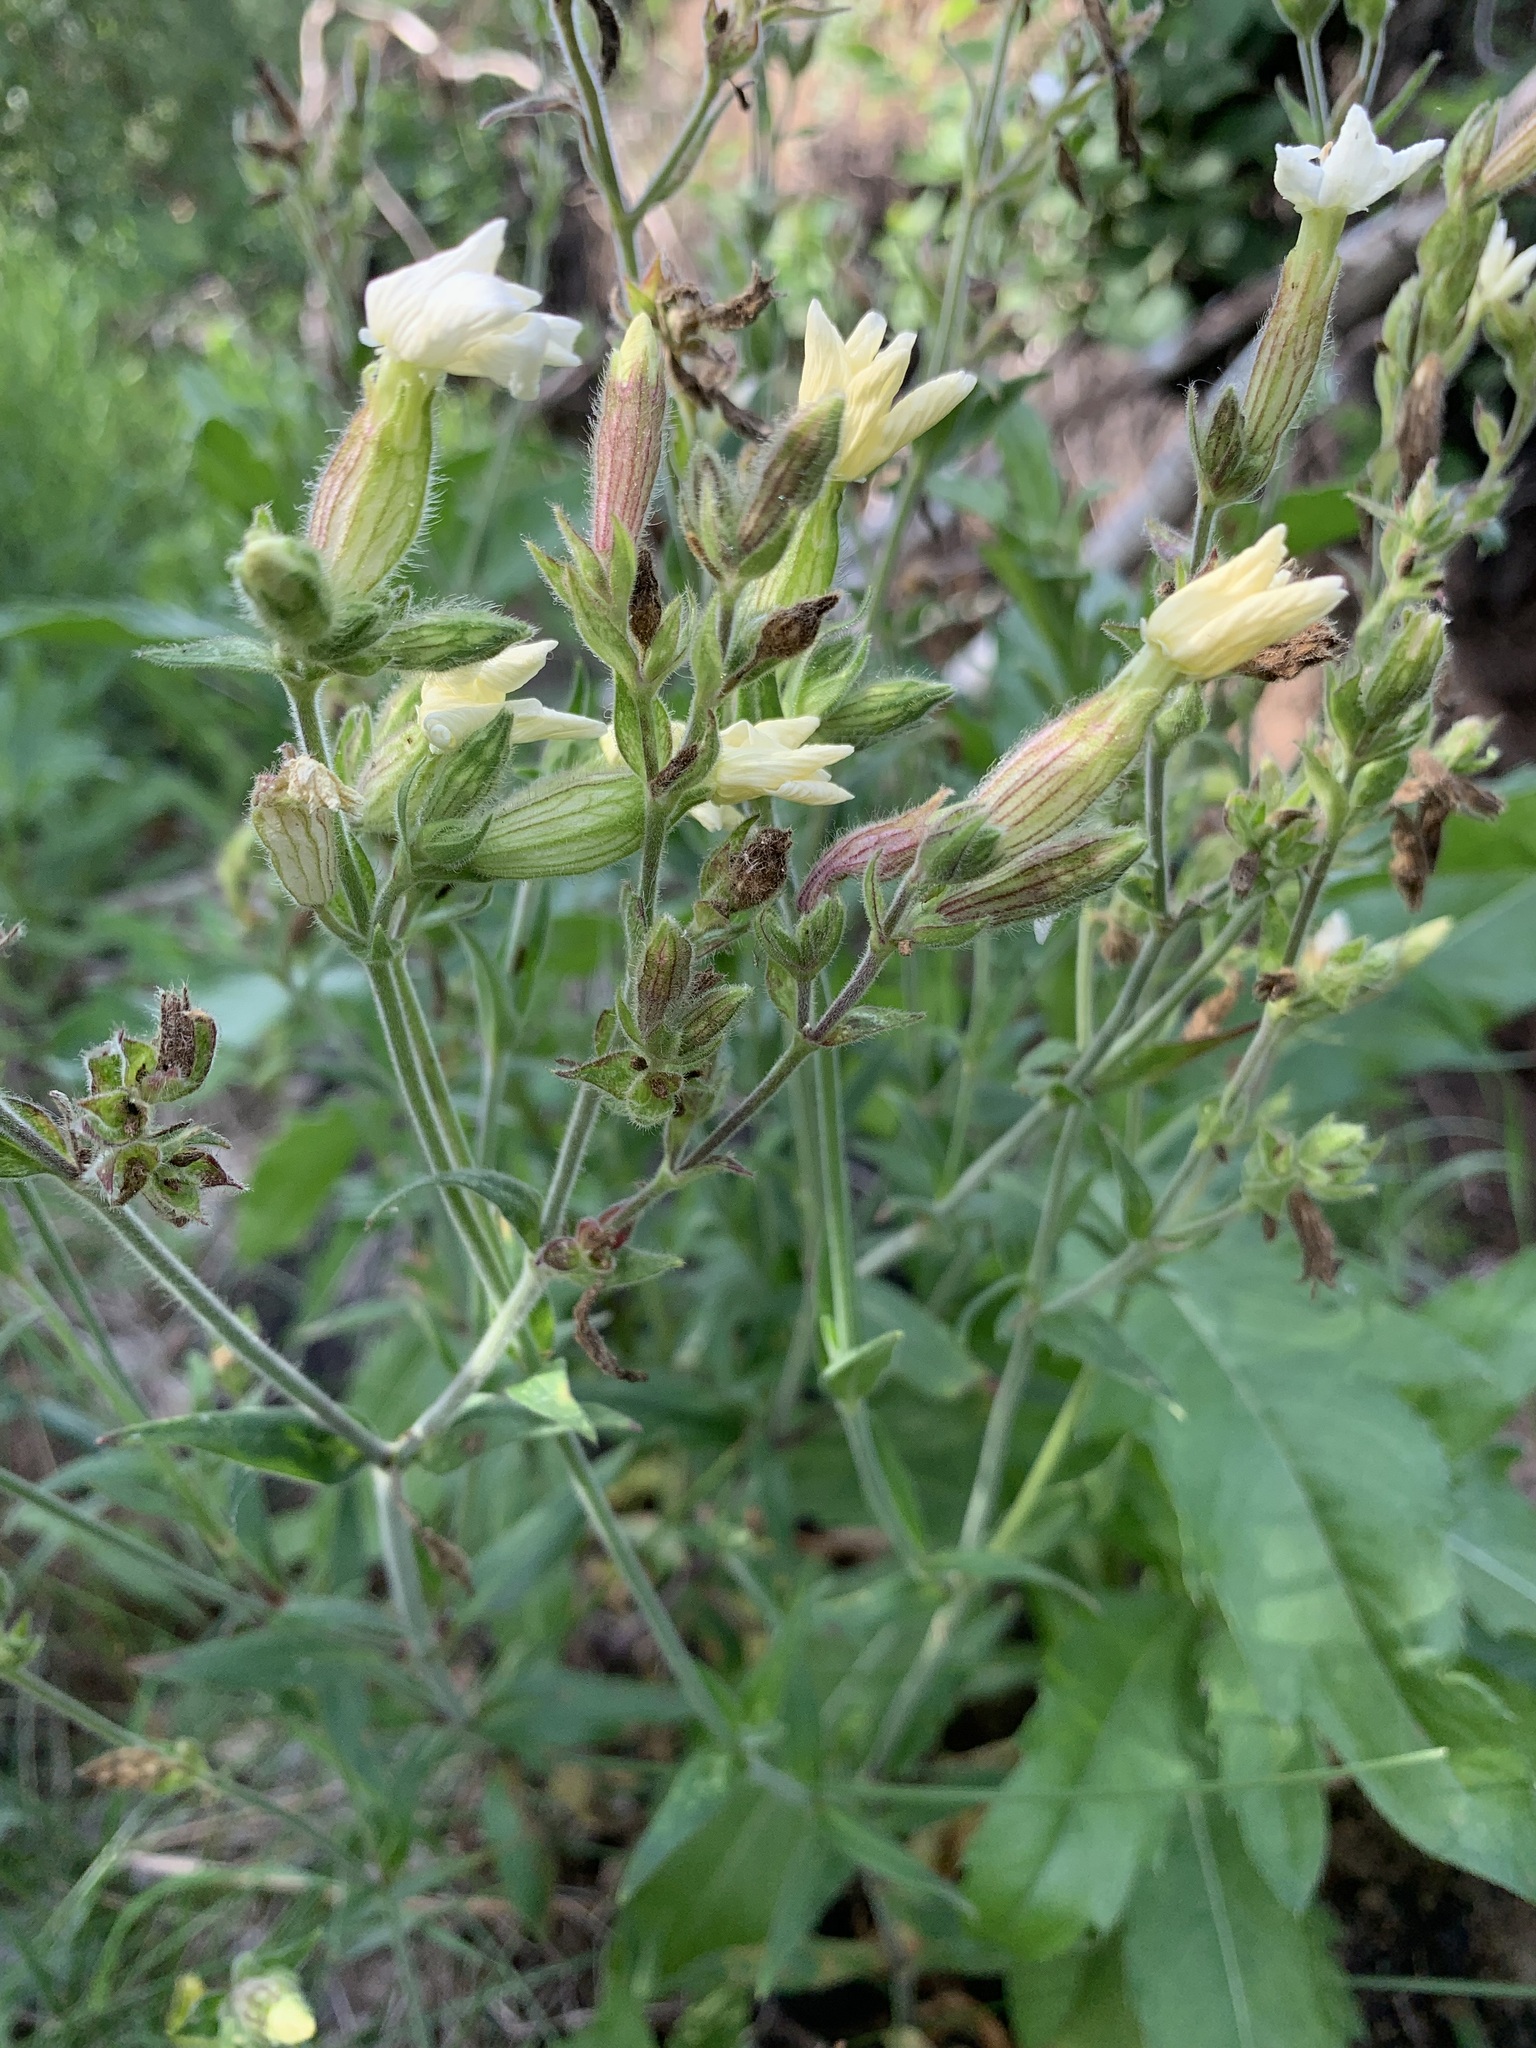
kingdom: Plantae
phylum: Tracheophyta
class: Magnoliopsida
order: Caryophyllales
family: Caryophyllaceae
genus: Silene
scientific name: Silene latifolia
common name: White campion
